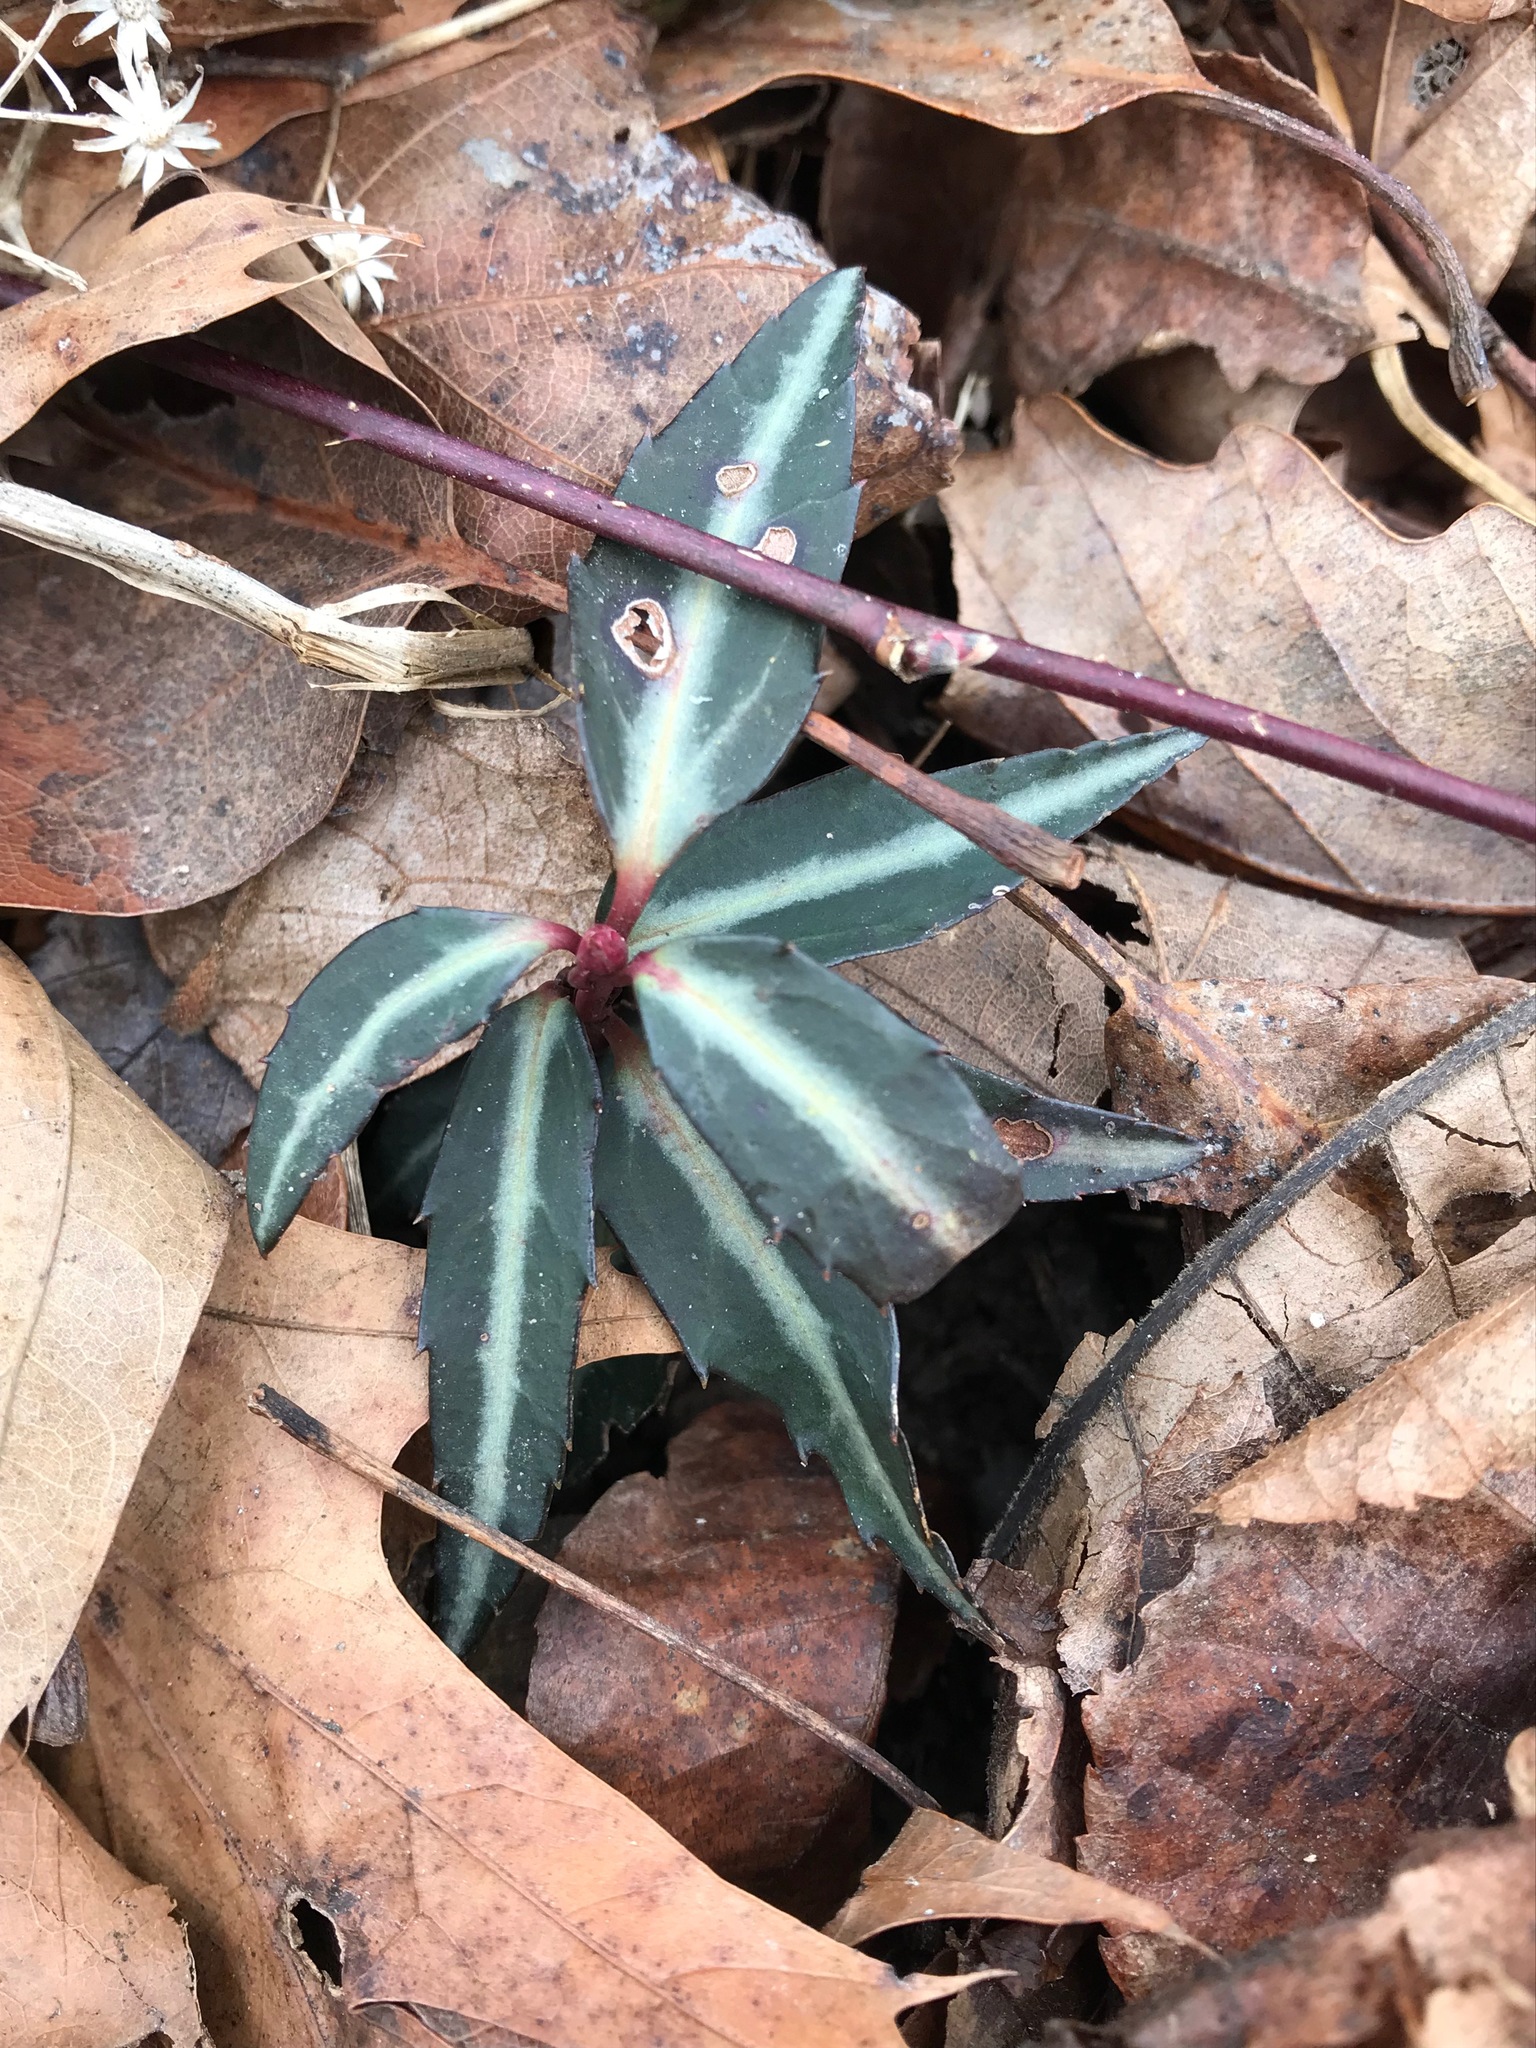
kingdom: Plantae
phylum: Tracheophyta
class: Magnoliopsida
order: Ericales
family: Ericaceae
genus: Chimaphila
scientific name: Chimaphila maculata
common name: Spotted pipsissewa
